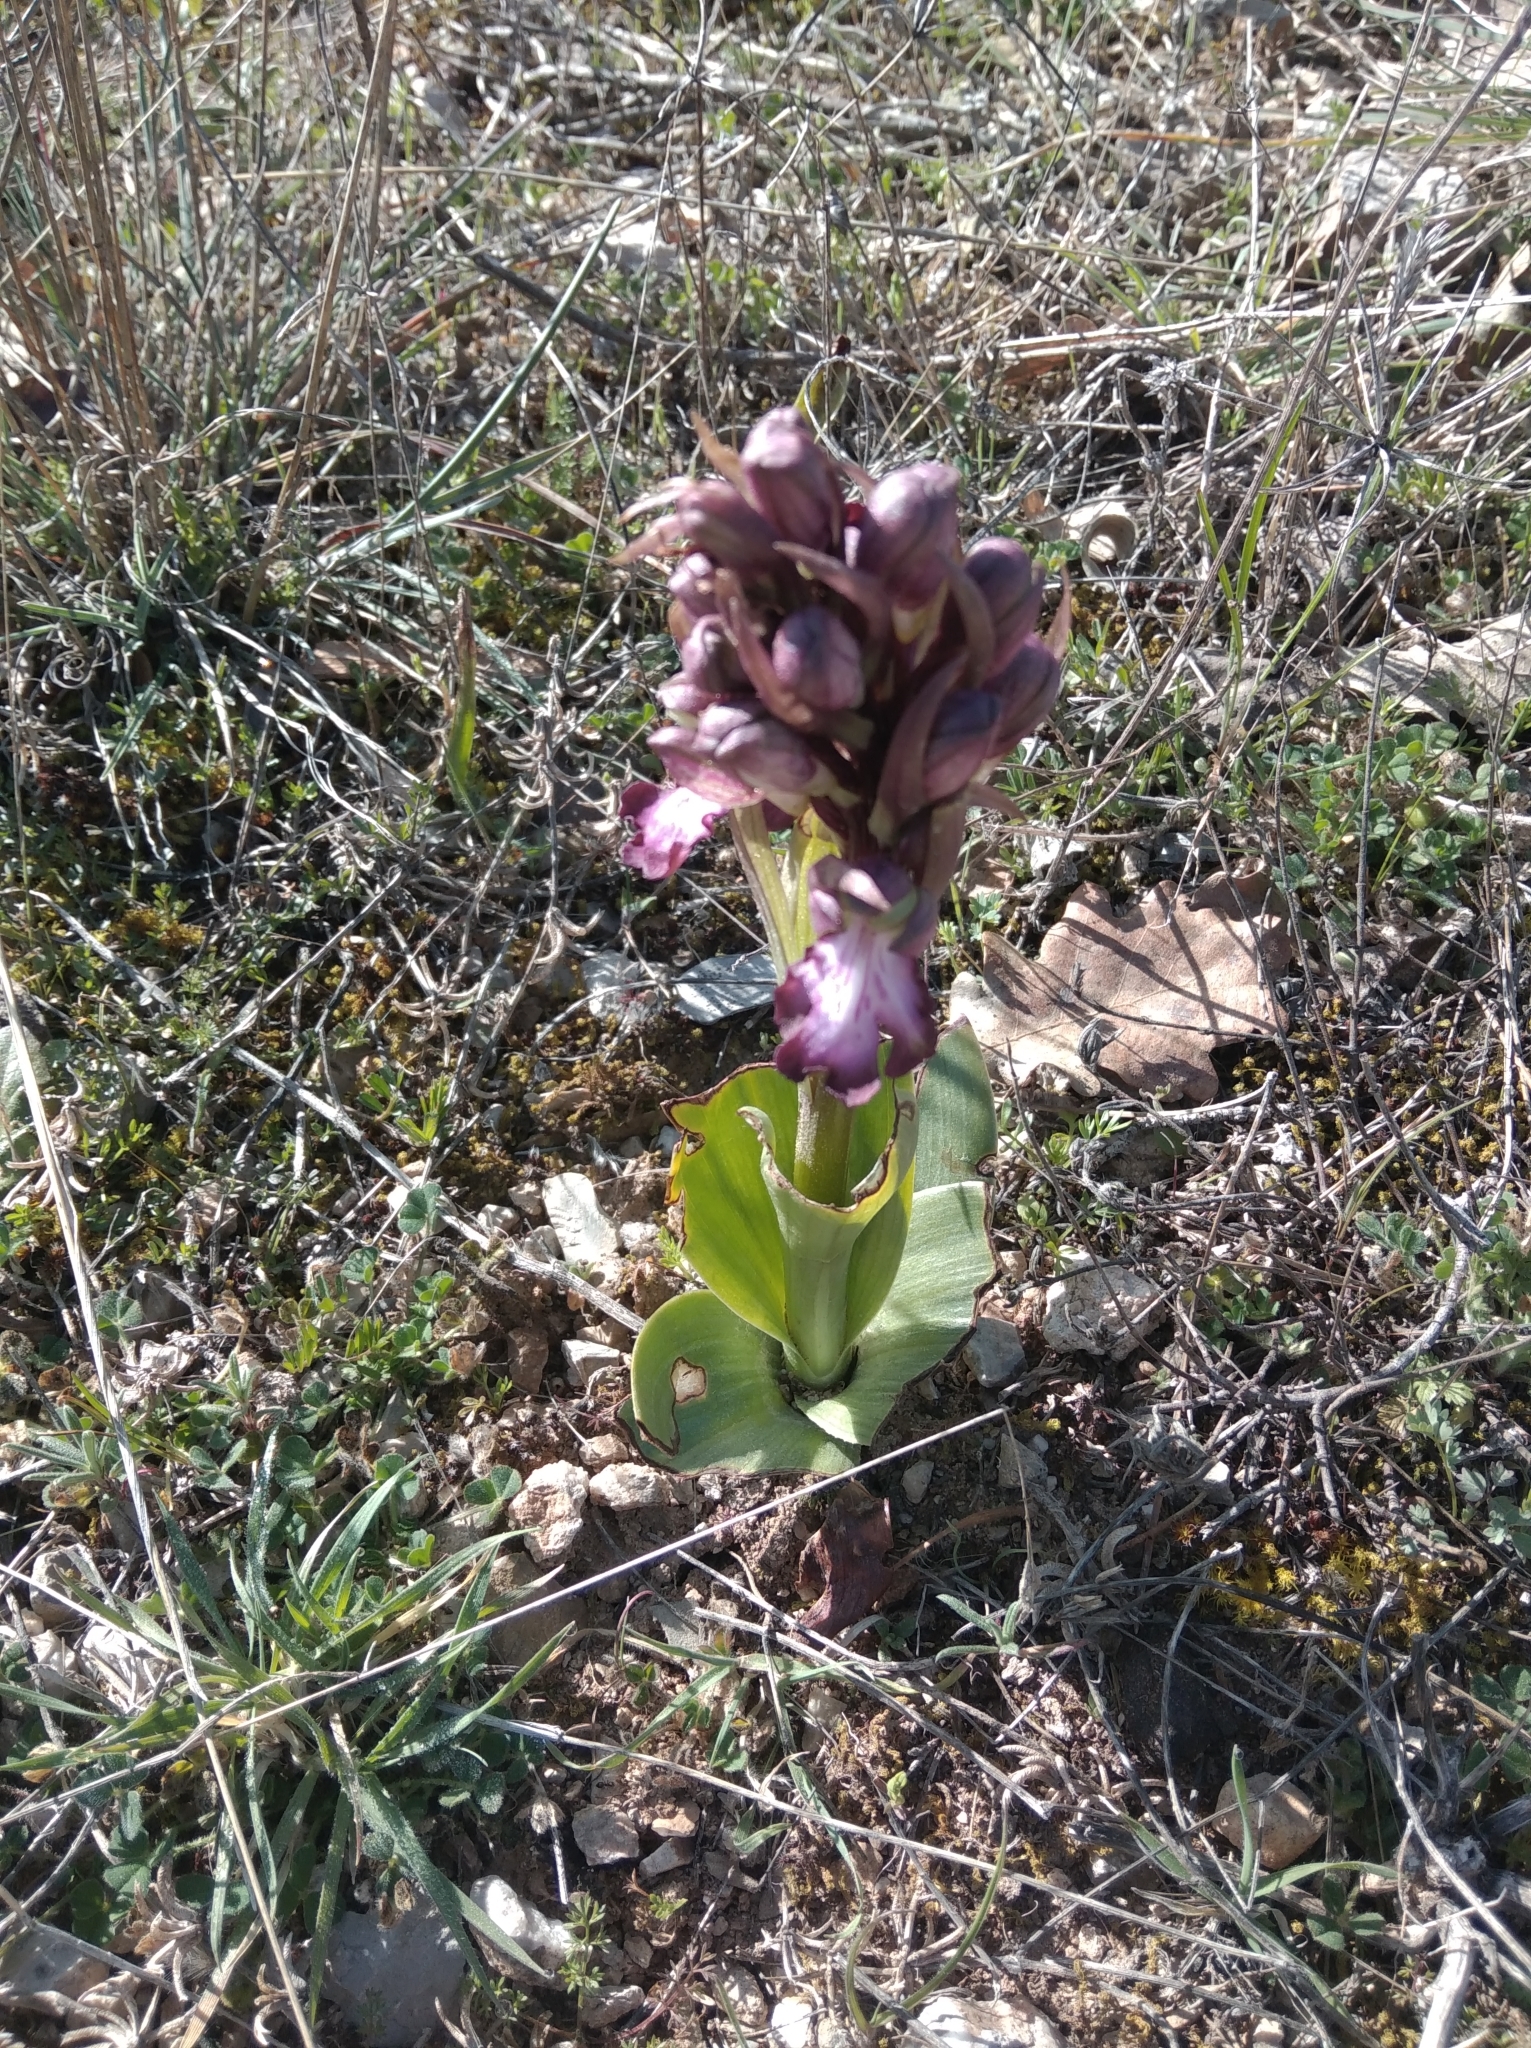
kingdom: Plantae
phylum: Tracheophyta
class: Liliopsida
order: Asparagales
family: Orchidaceae
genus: Himantoglossum
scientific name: Himantoglossum robertianum
